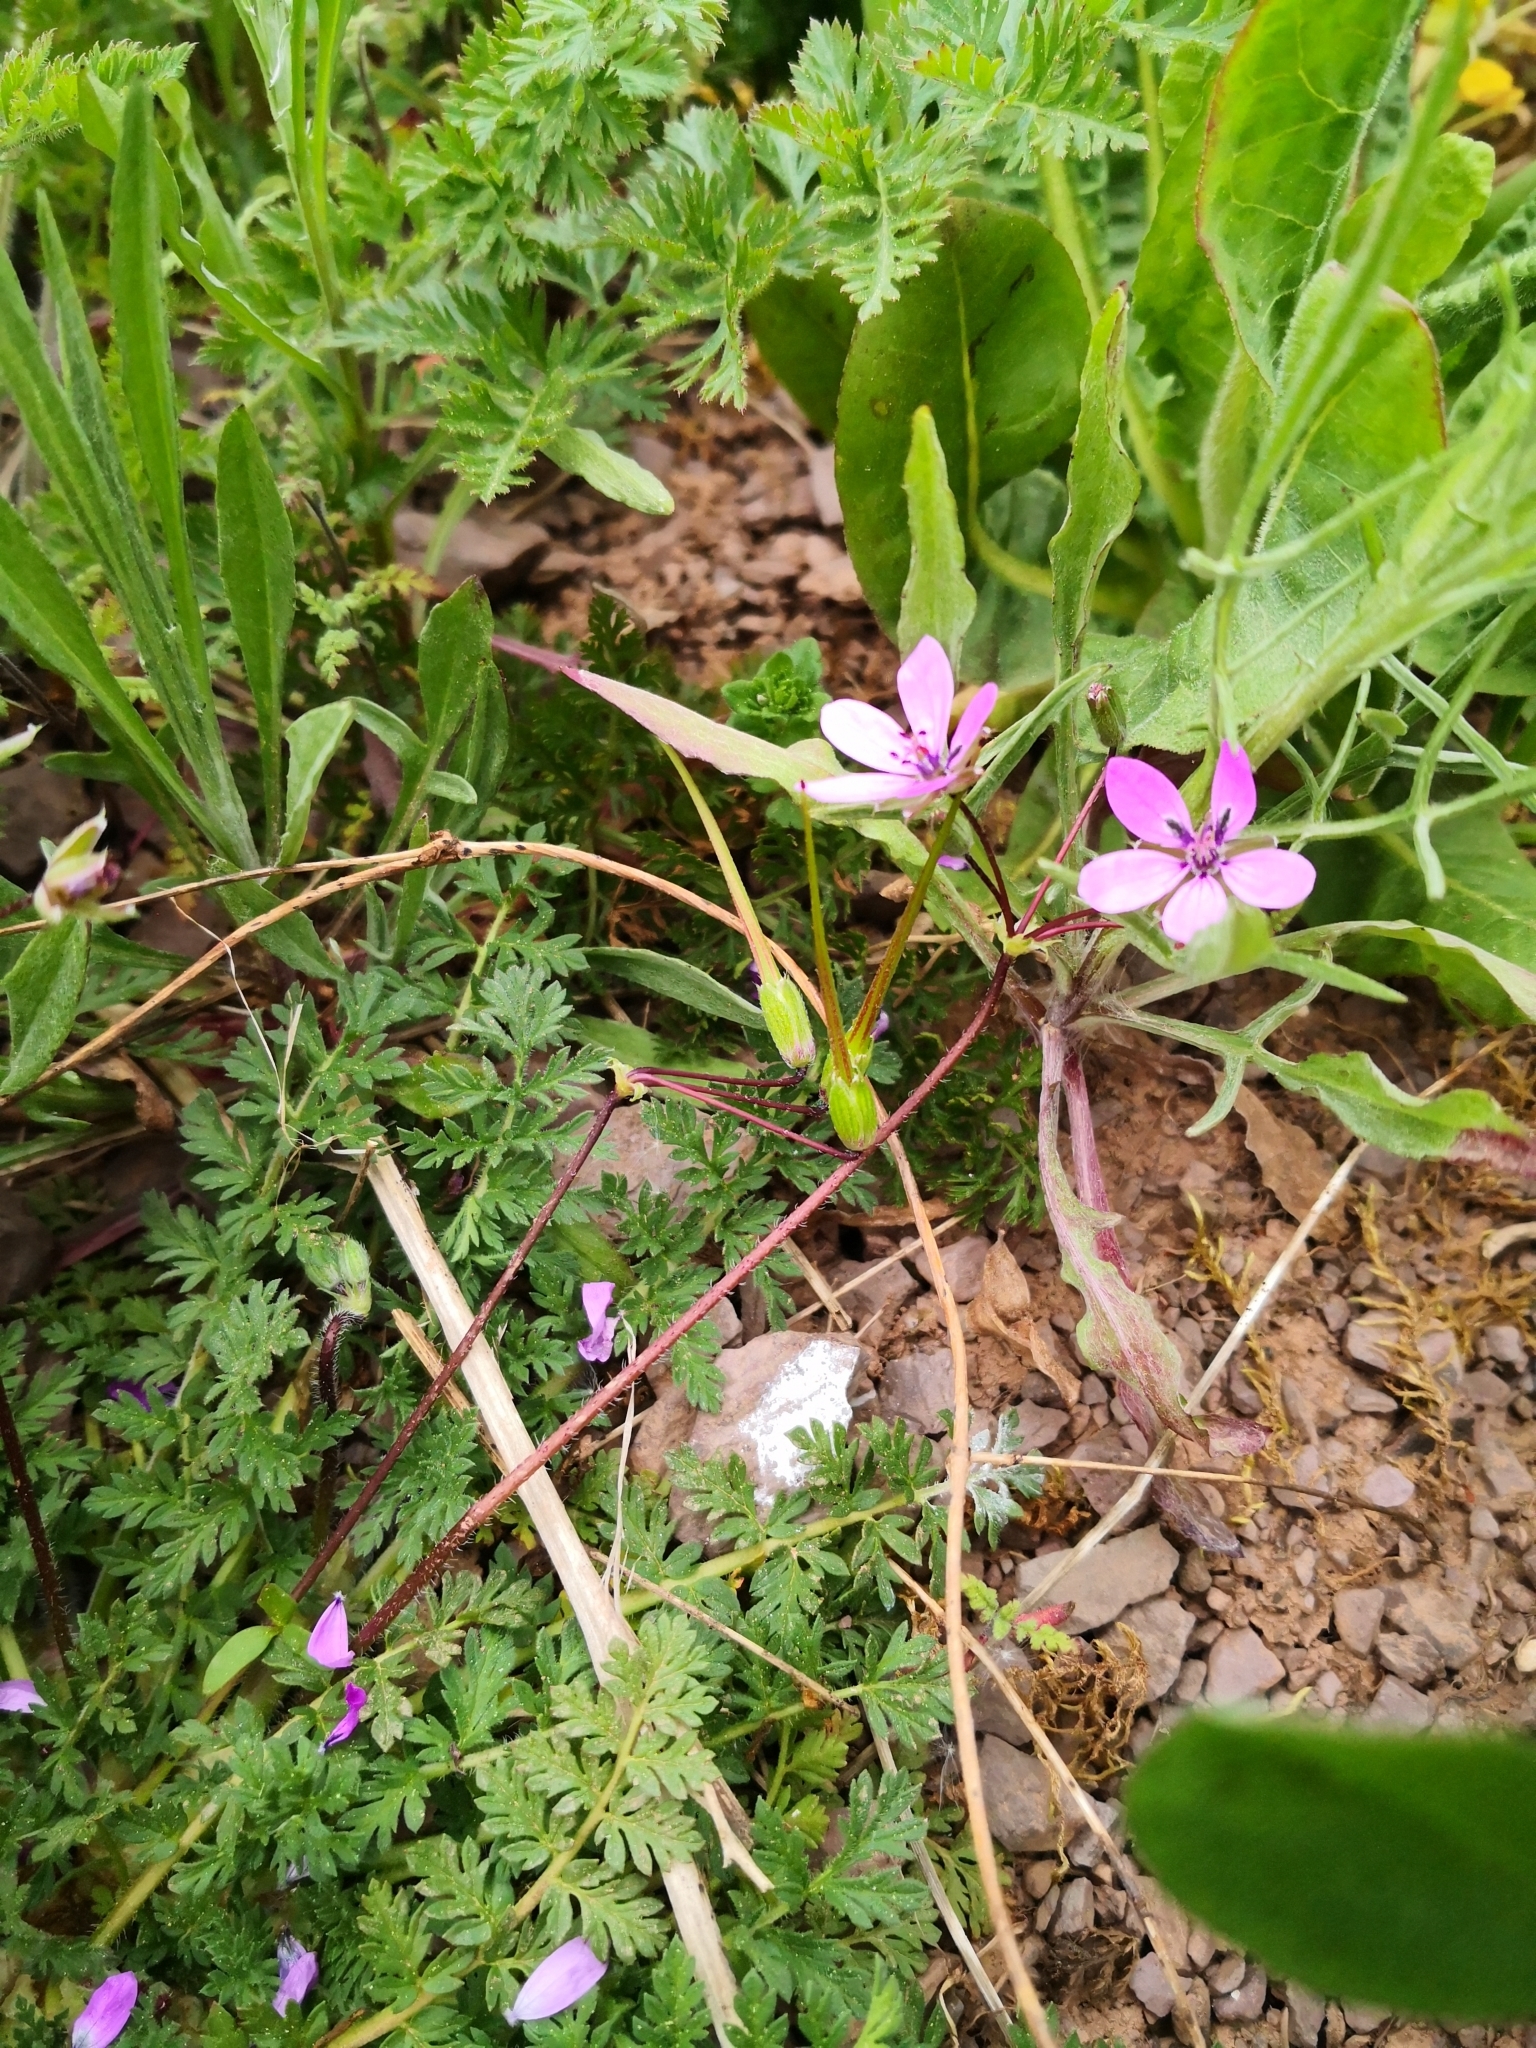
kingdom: Plantae
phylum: Tracheophyta
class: Magnoliopsida
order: Geraniales
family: Geraniaceae
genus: Erodium
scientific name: Erodium cicutarium
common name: Common stork's-bill
